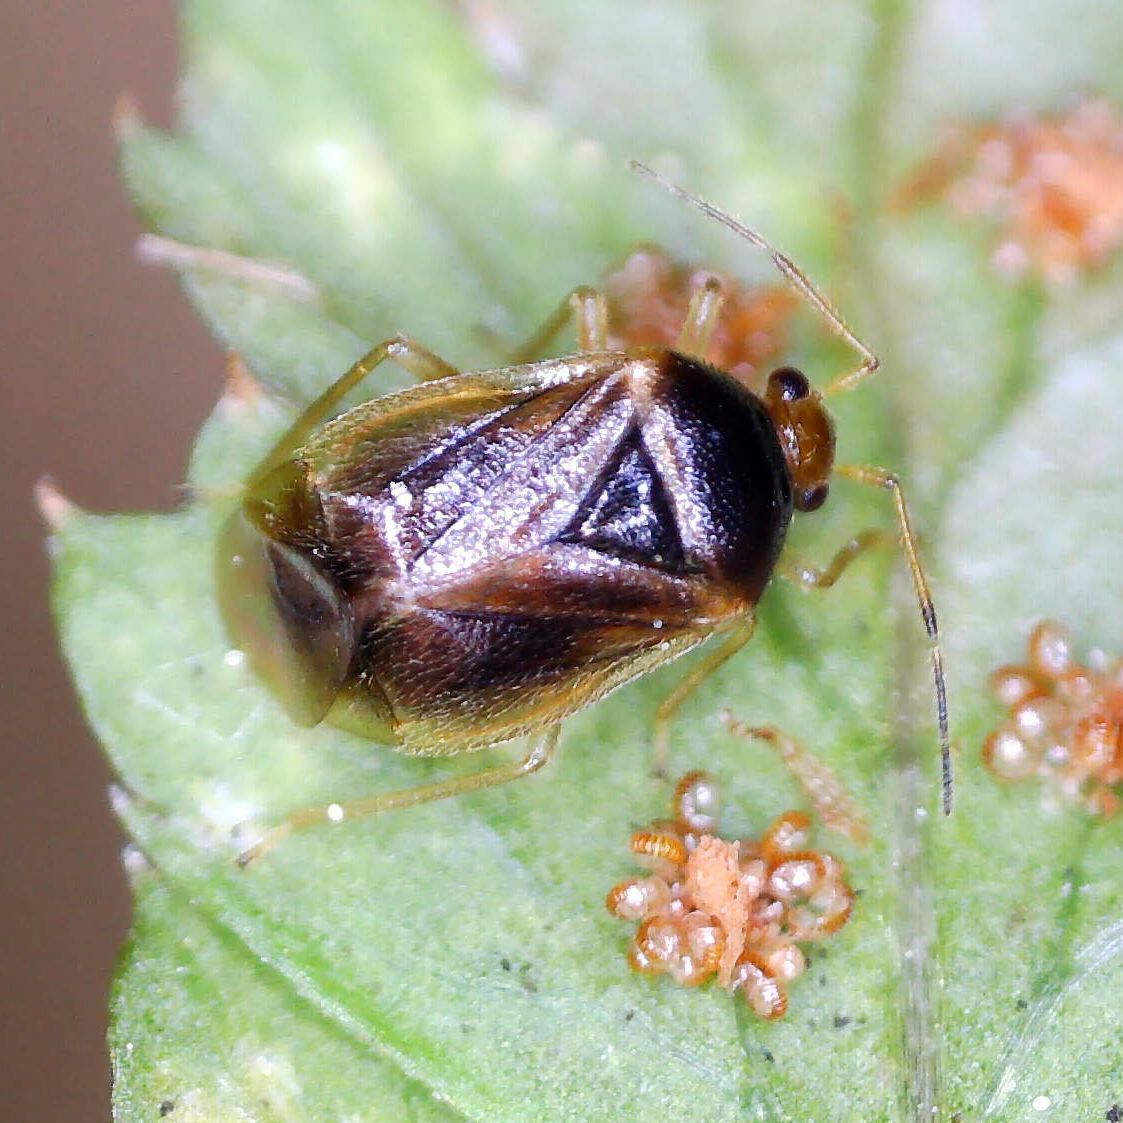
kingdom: Animalia
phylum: Arthropoda
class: Insecta
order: Hemiptera
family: Miridae
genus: Monalocoris
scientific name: Monalocoris filicis
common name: Bracken bug
